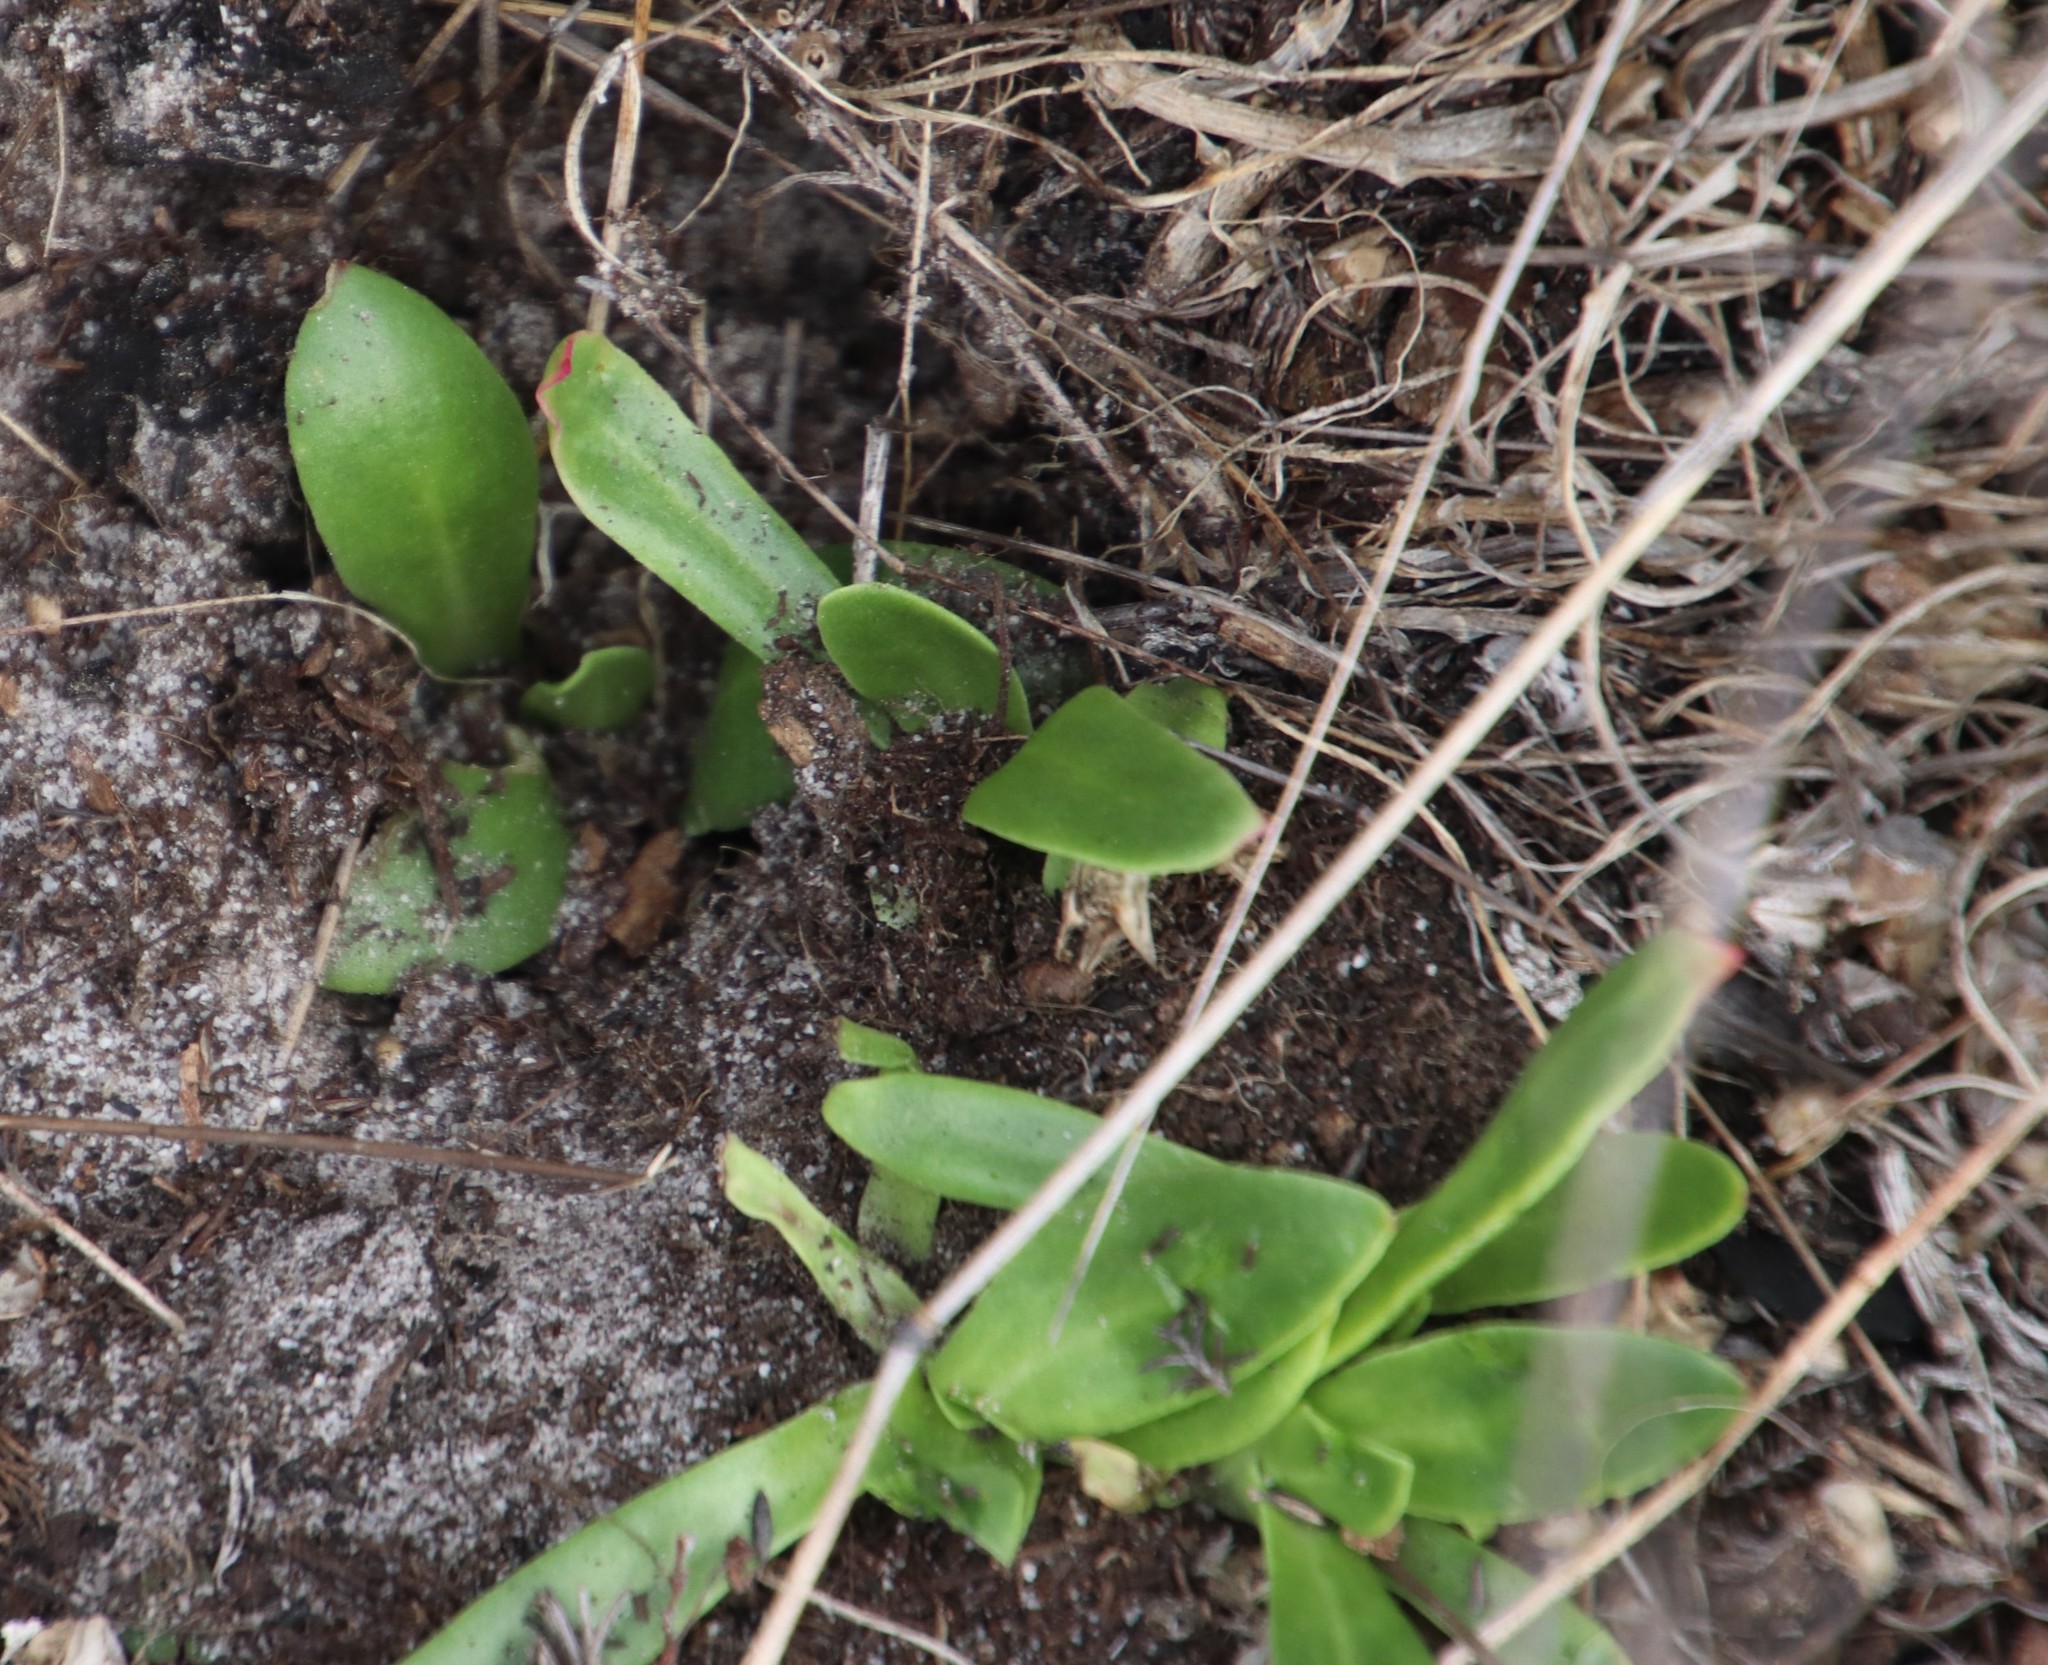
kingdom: Plantae
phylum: Tracheophyta
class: Magnoliopsida
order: Caryophyllales
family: Aizoaceae
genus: Skiatophytum
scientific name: Skiatophytum tripolium
